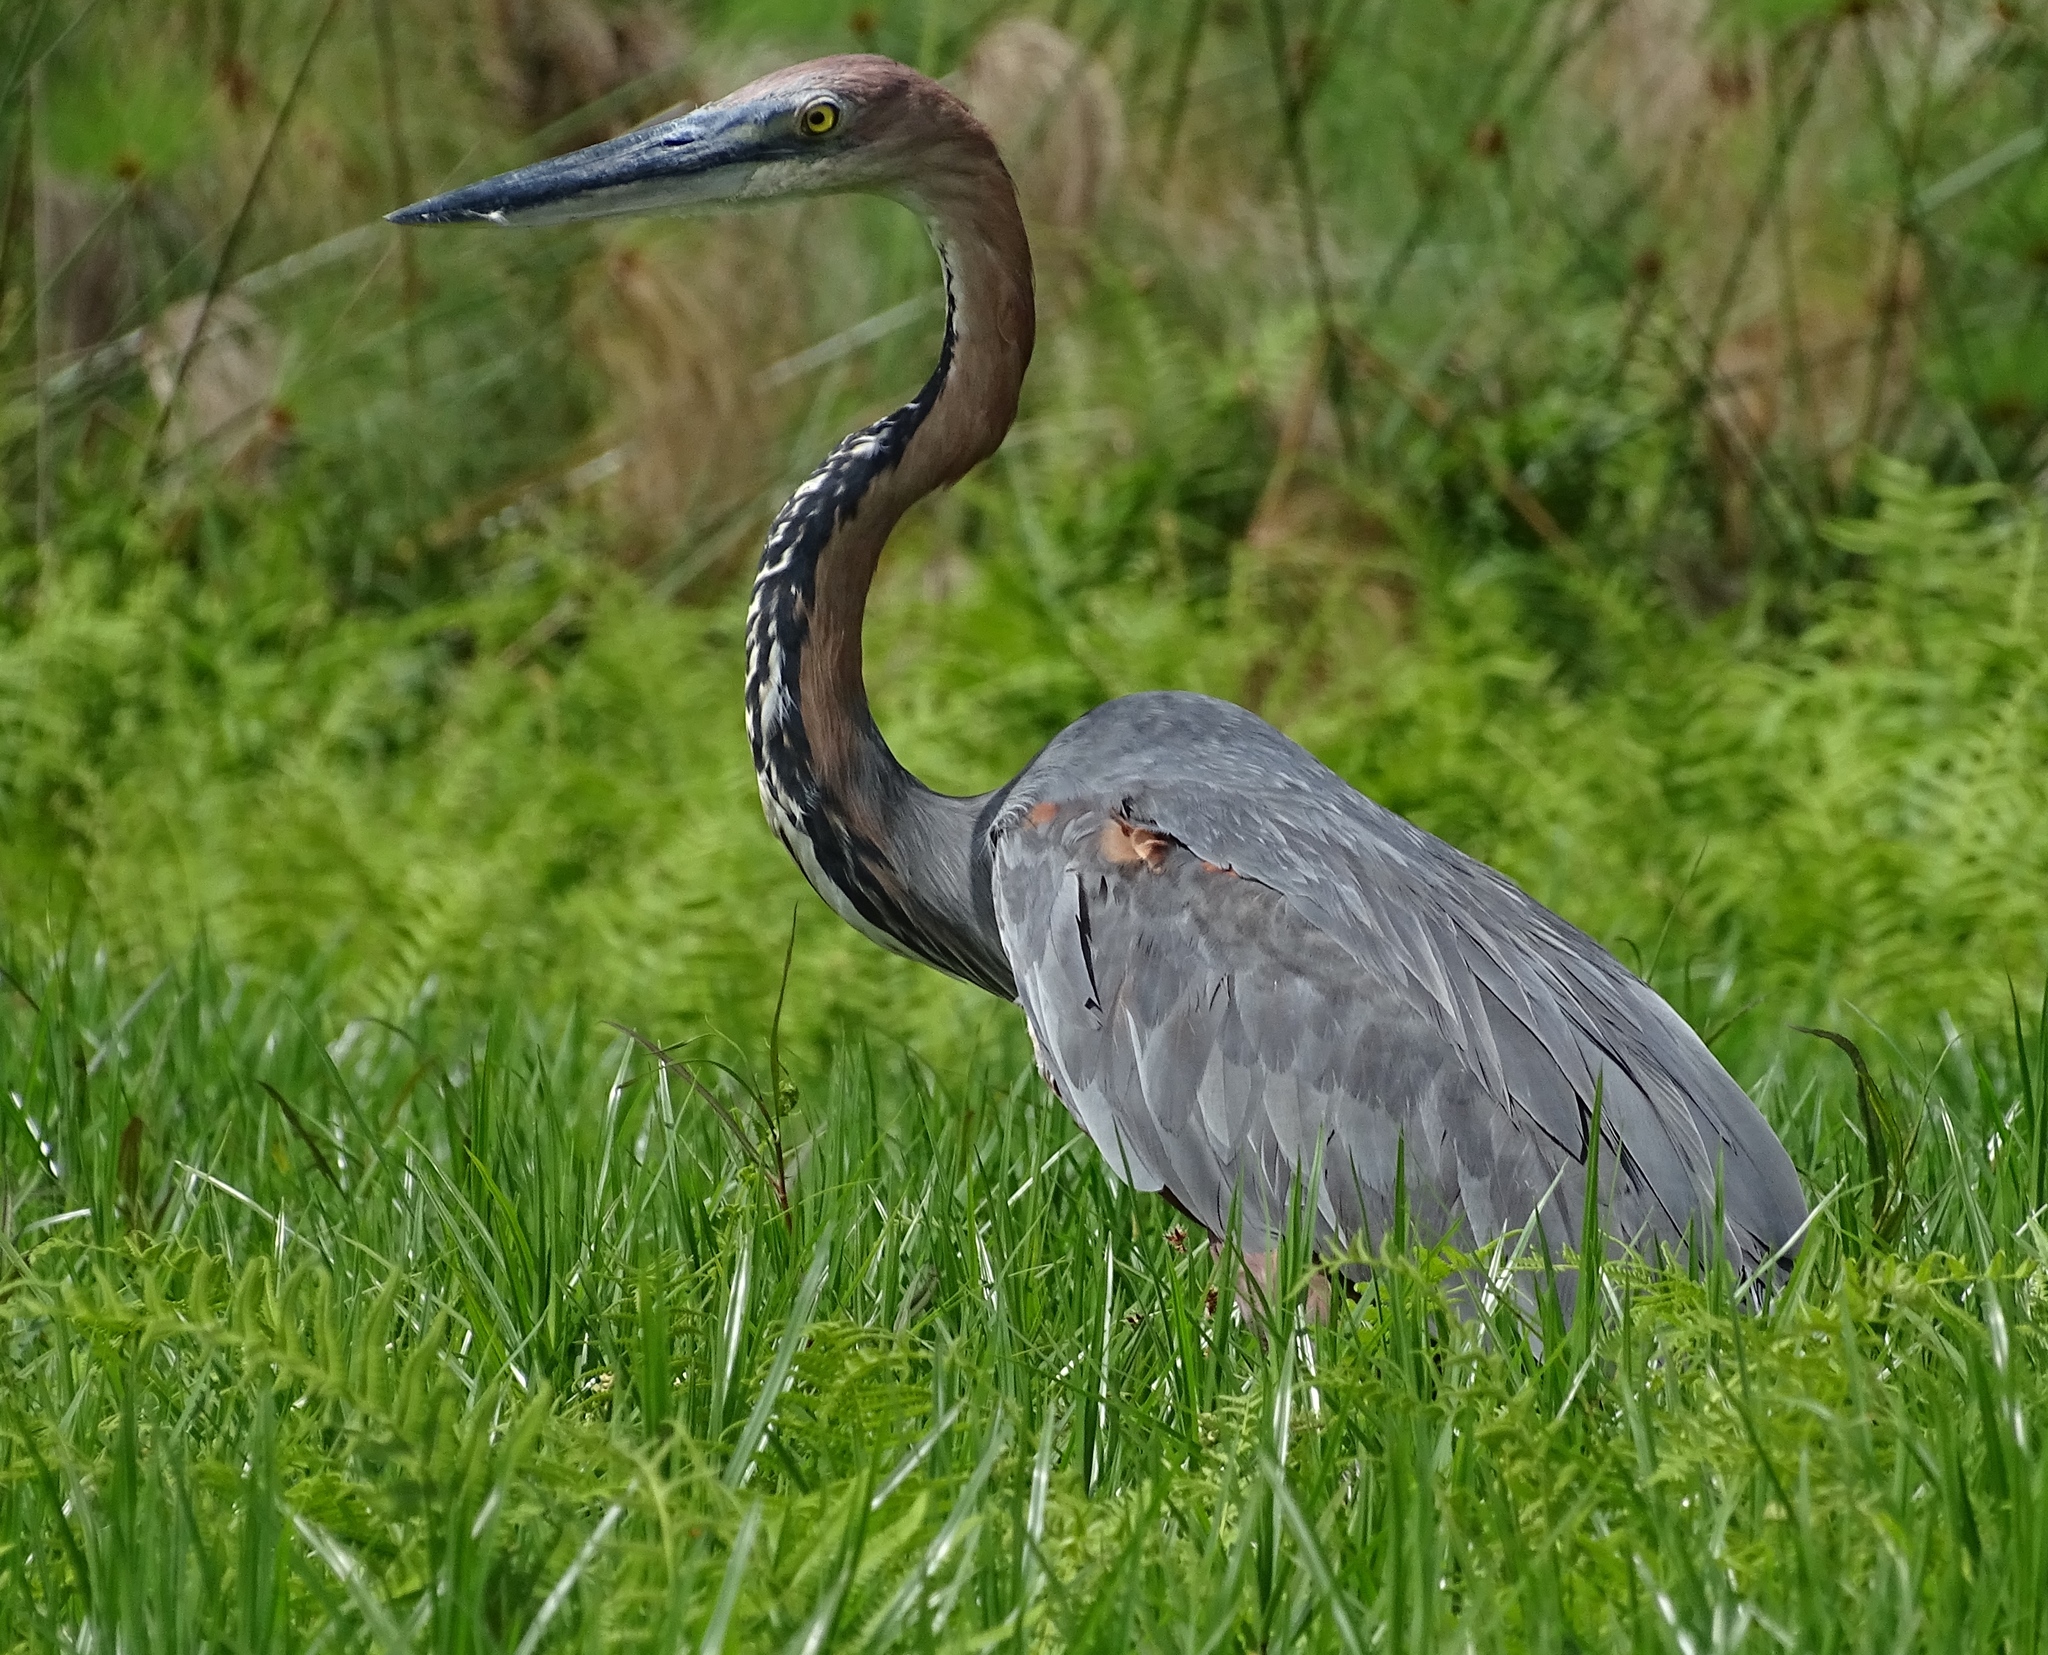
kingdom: Animalia
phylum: Chordata
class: Aves
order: Pelecaniformes
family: Ardeidae
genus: Ardea
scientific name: Ardea goliath
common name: Goliath heron
